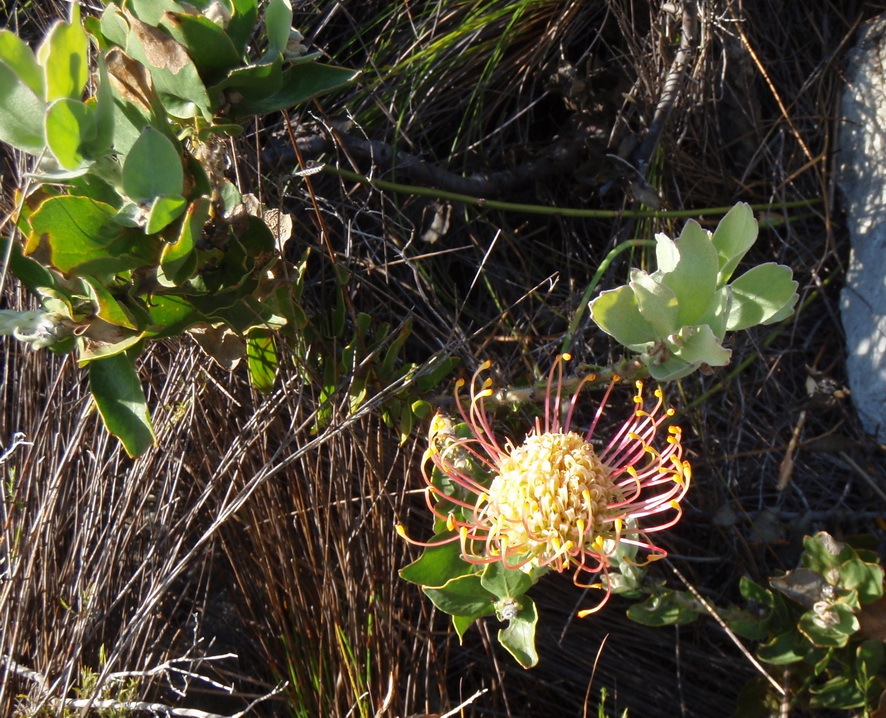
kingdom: Plantae
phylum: Tracheophyta
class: Magnoliopsida
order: Proteales
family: Proteaceae
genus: Leucospermum
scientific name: Leucospermum cordifolium
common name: Red pincushion-protea
